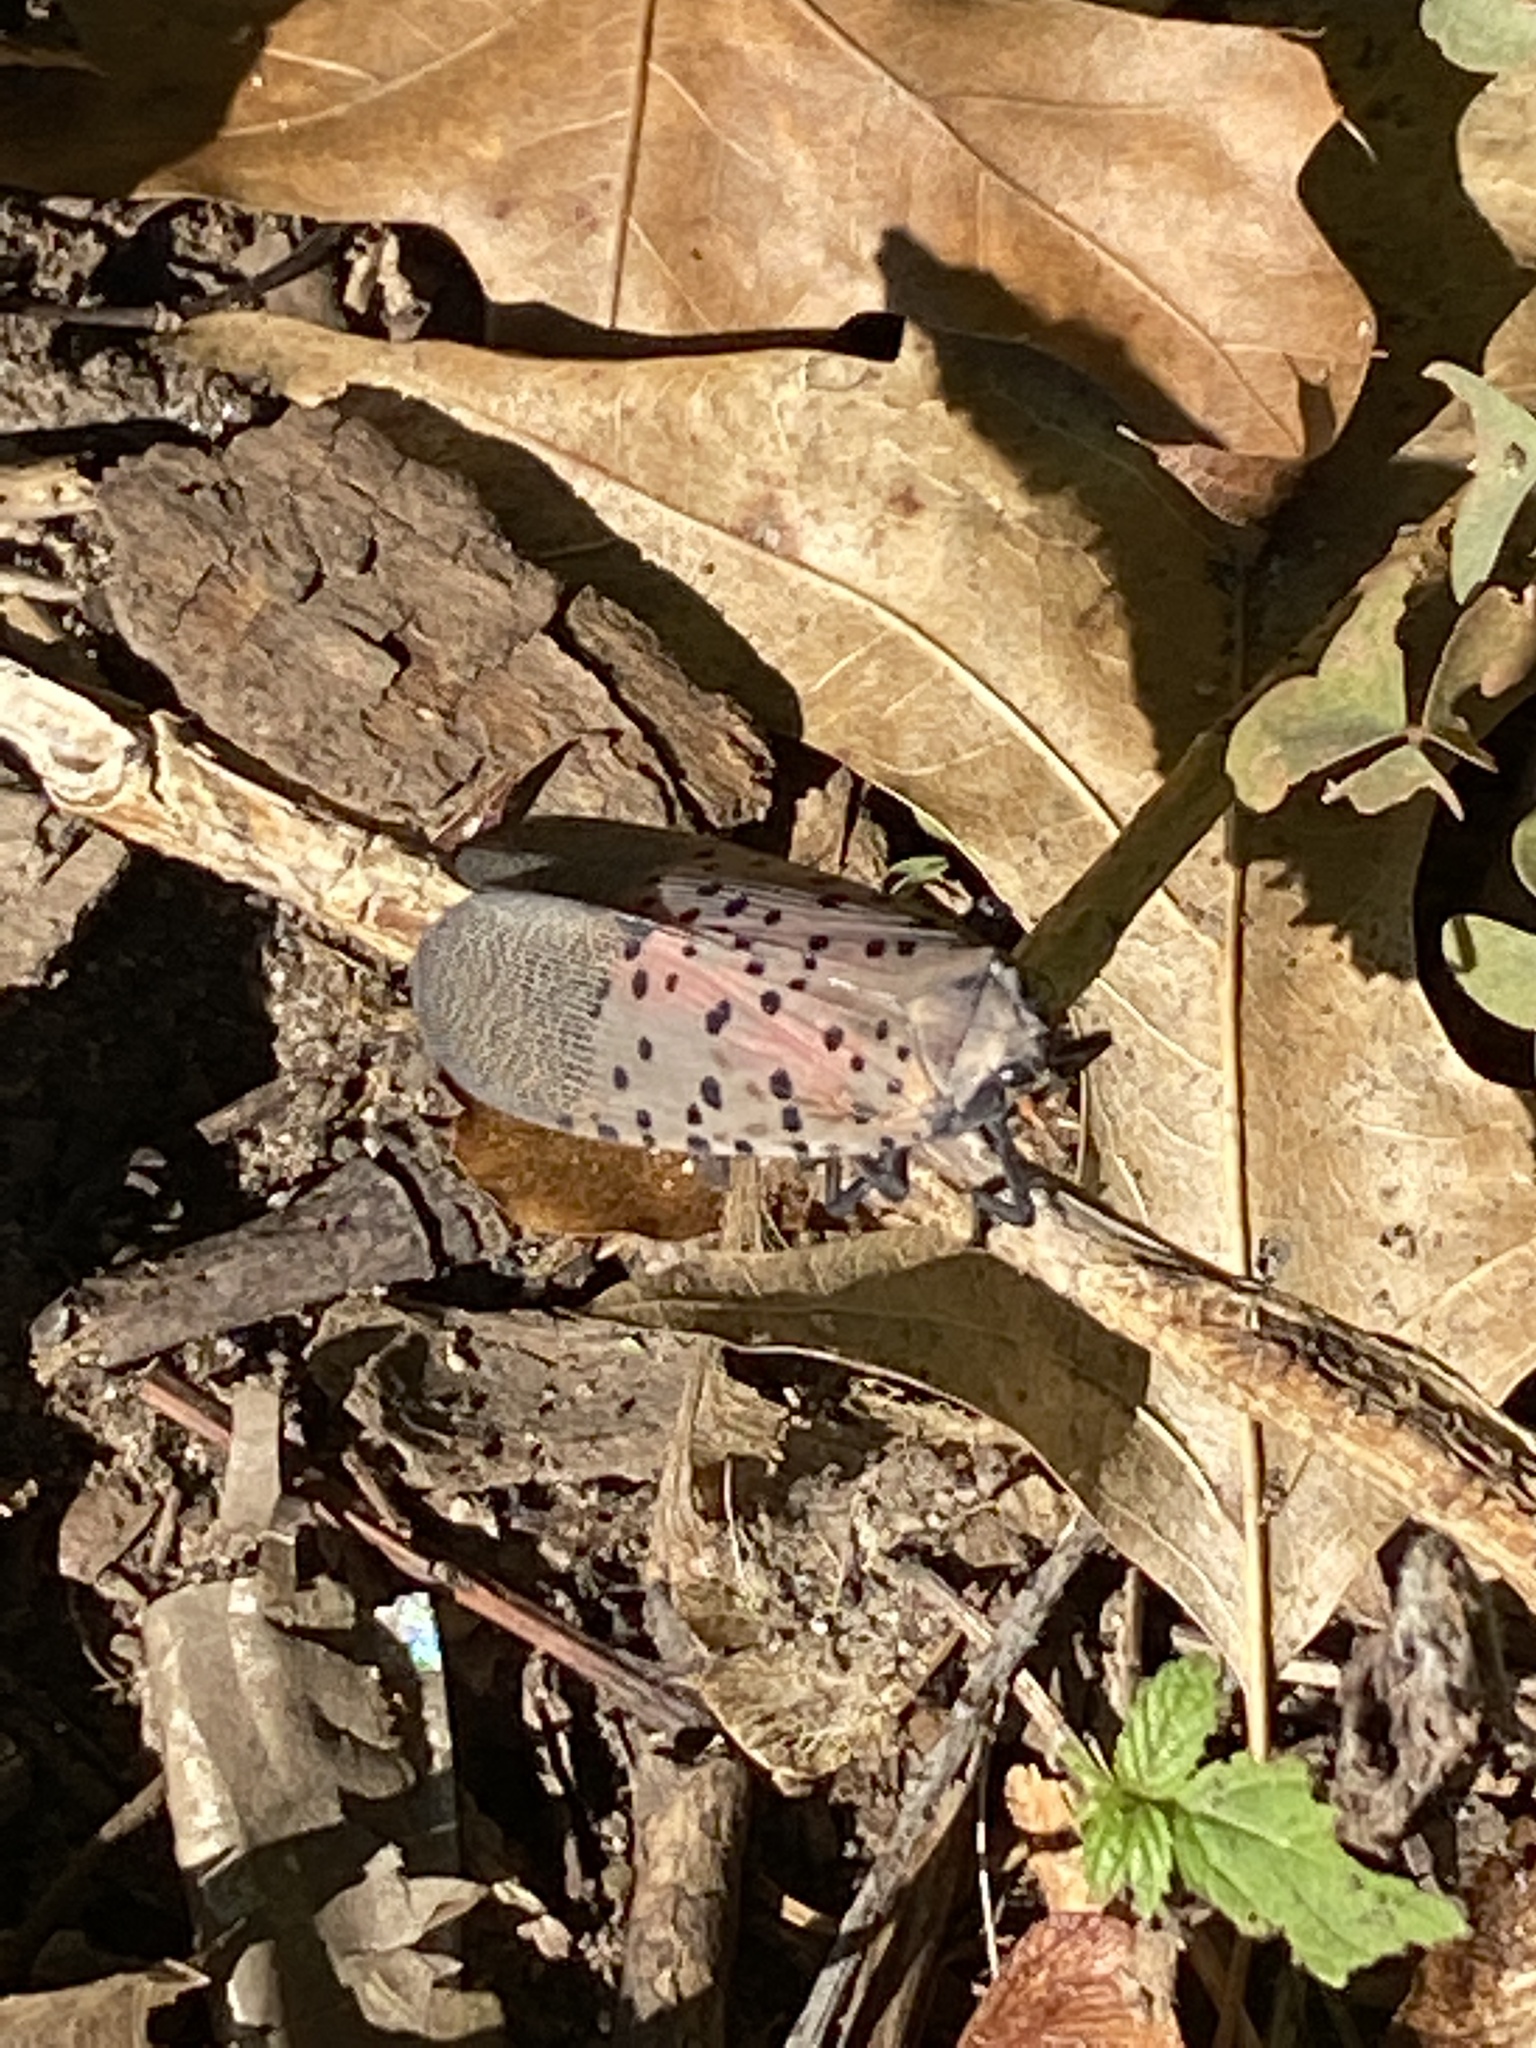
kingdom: Animalia
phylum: Arthropoda
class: Insecta
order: Hemiptera
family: Fulgoridae
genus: Lycorma
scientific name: Lycorma delicatula
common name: Spotted lanternfly
